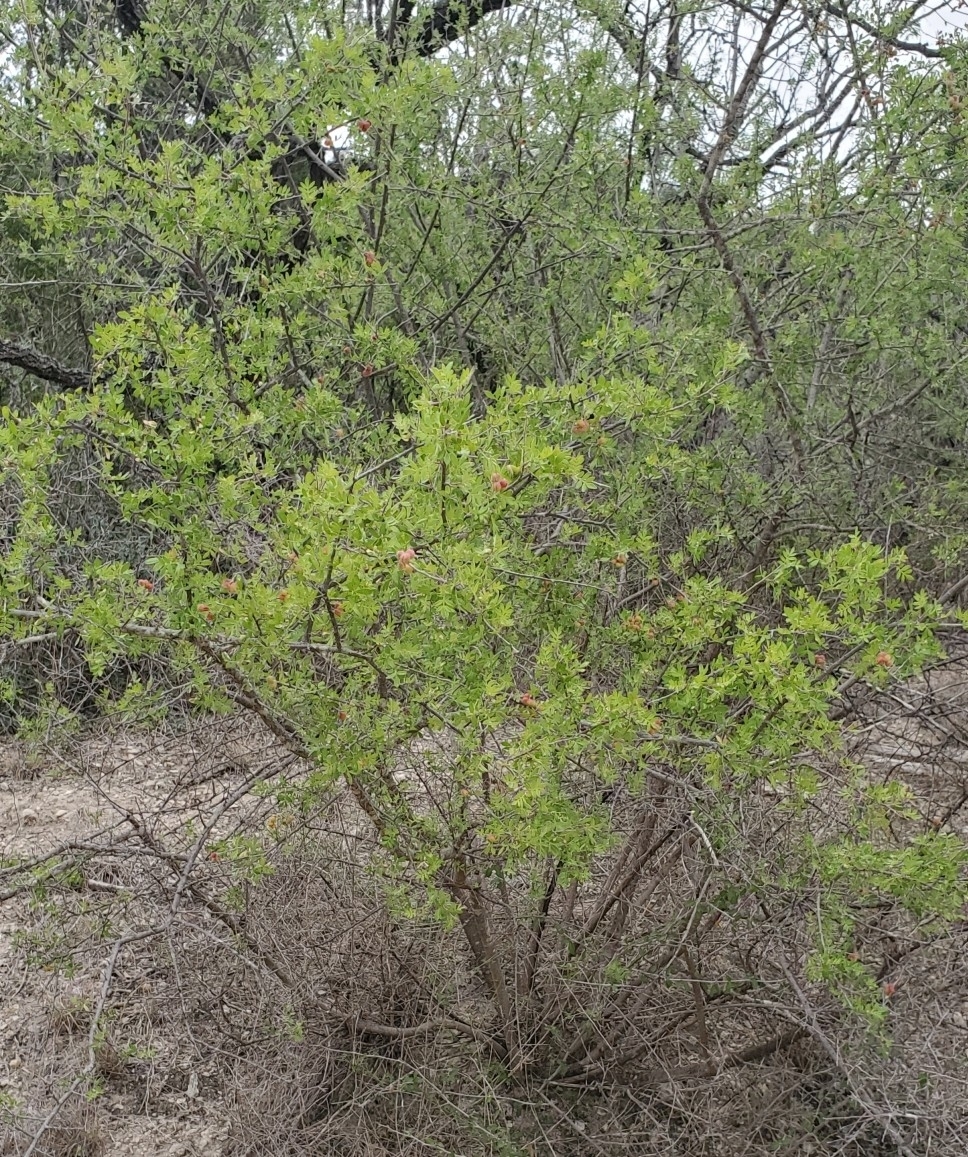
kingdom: Plantae
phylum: Tracheophyta
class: Magnoliopsida
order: Sapindales
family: Anacardiaceae
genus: Rhus
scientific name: Rhus microphylla
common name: Desert sumac
